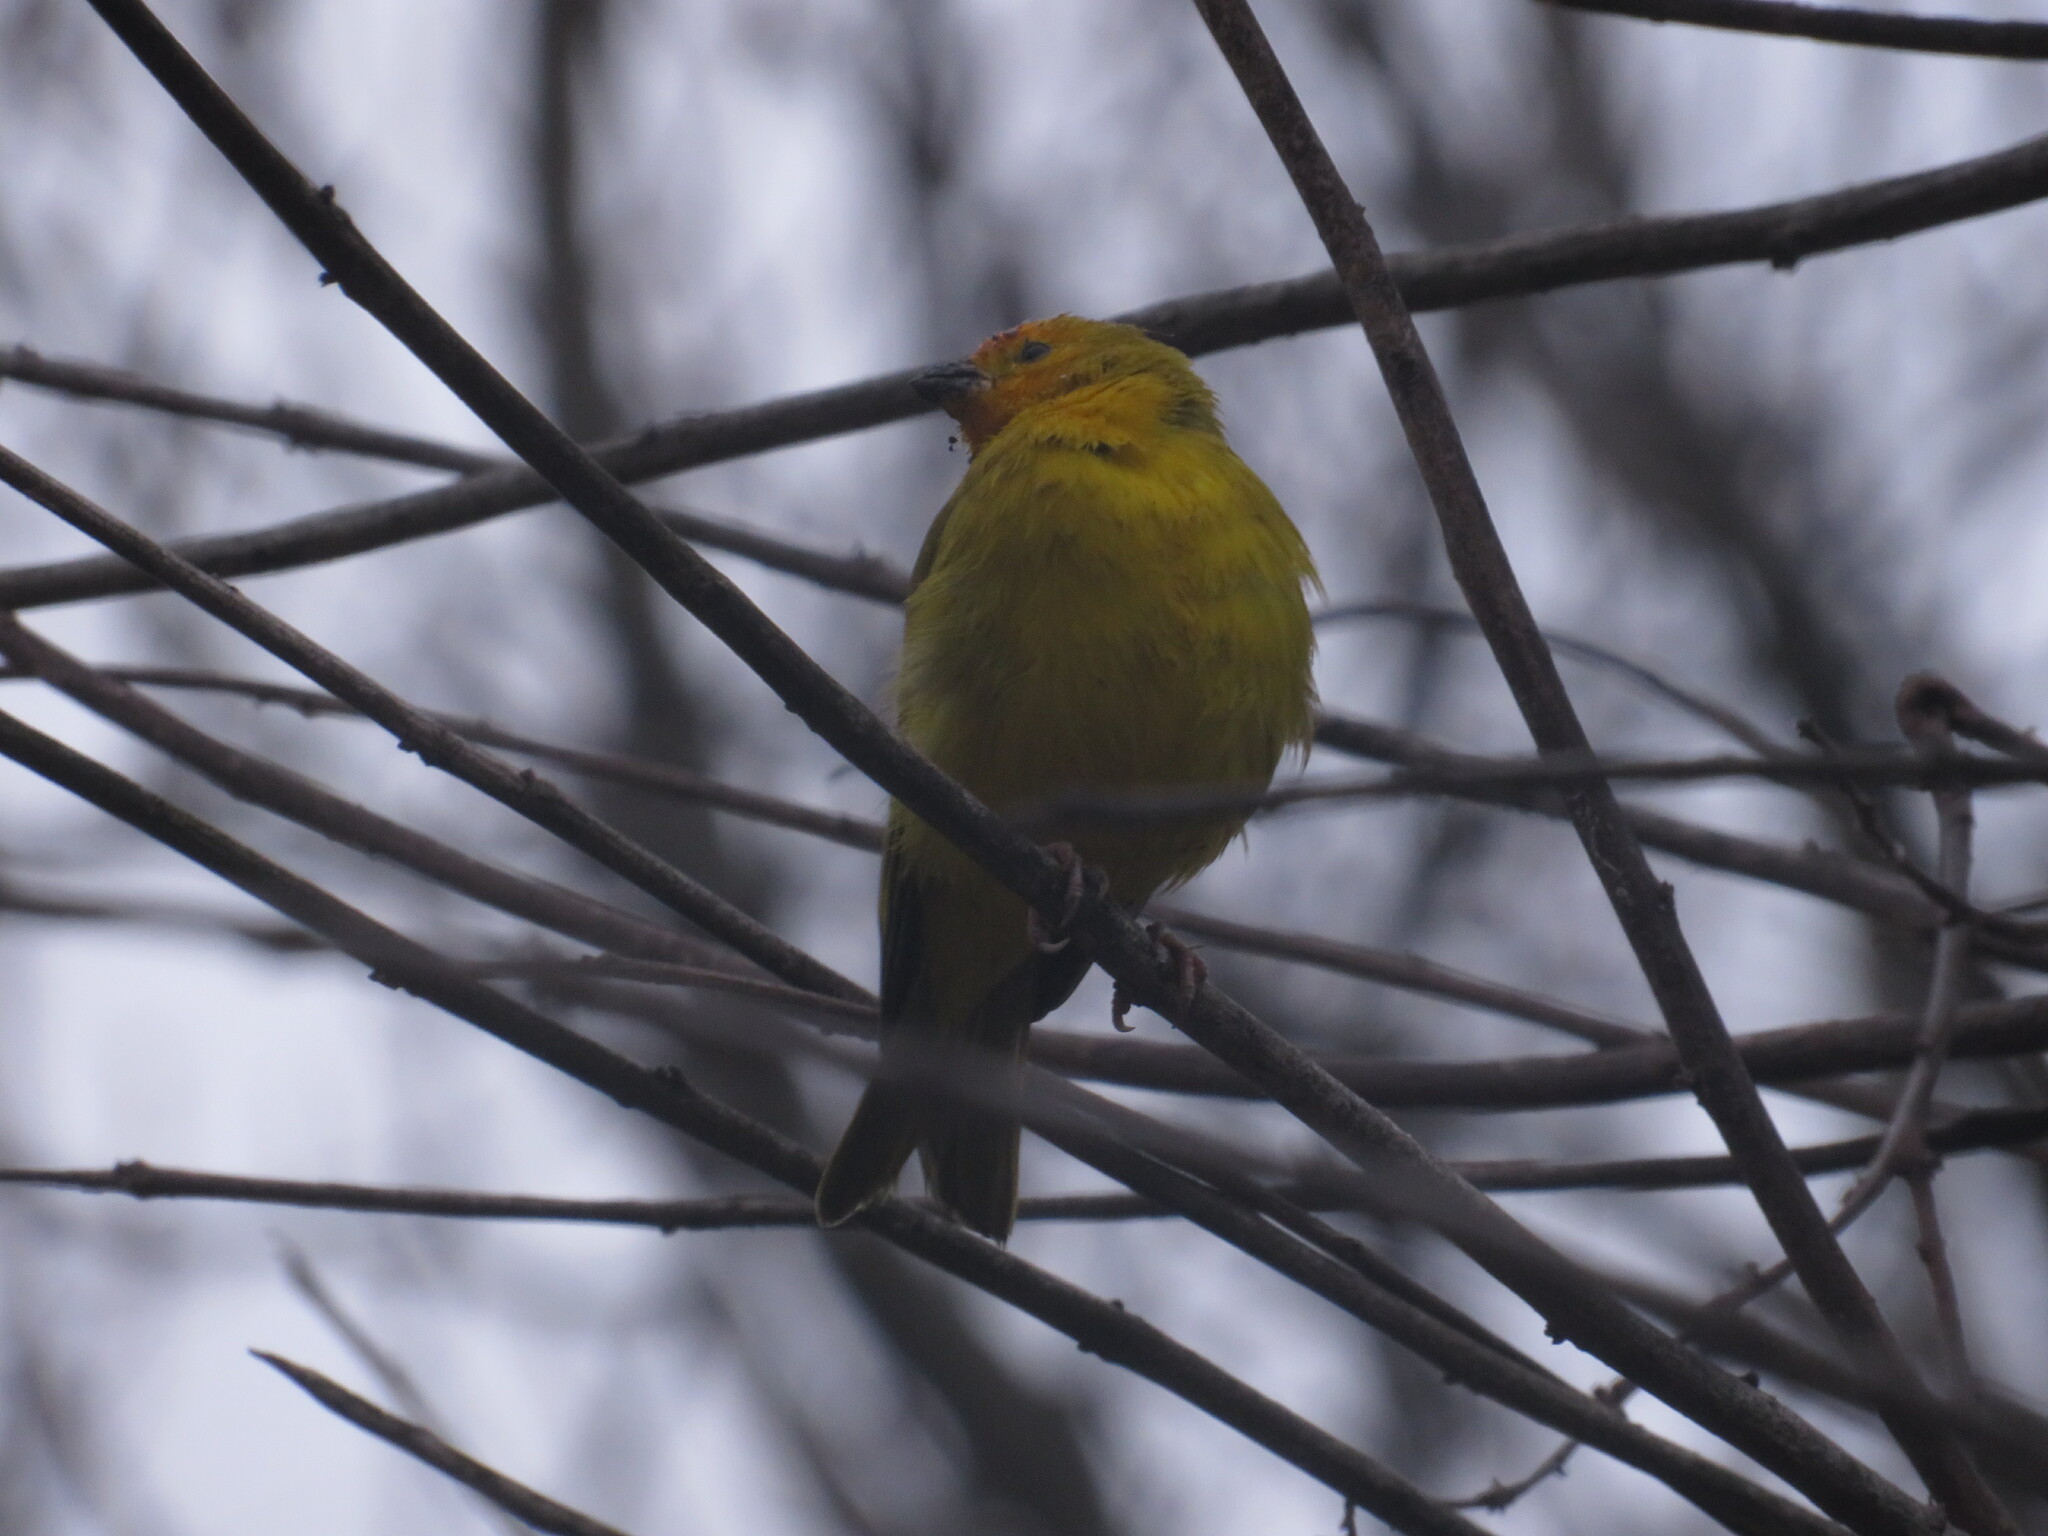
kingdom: Animalia
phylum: Chordata
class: Aves
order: Passeriformes
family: Thraupidae
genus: Sicalis
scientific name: Sicalis flaveola
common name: Saffron finch
